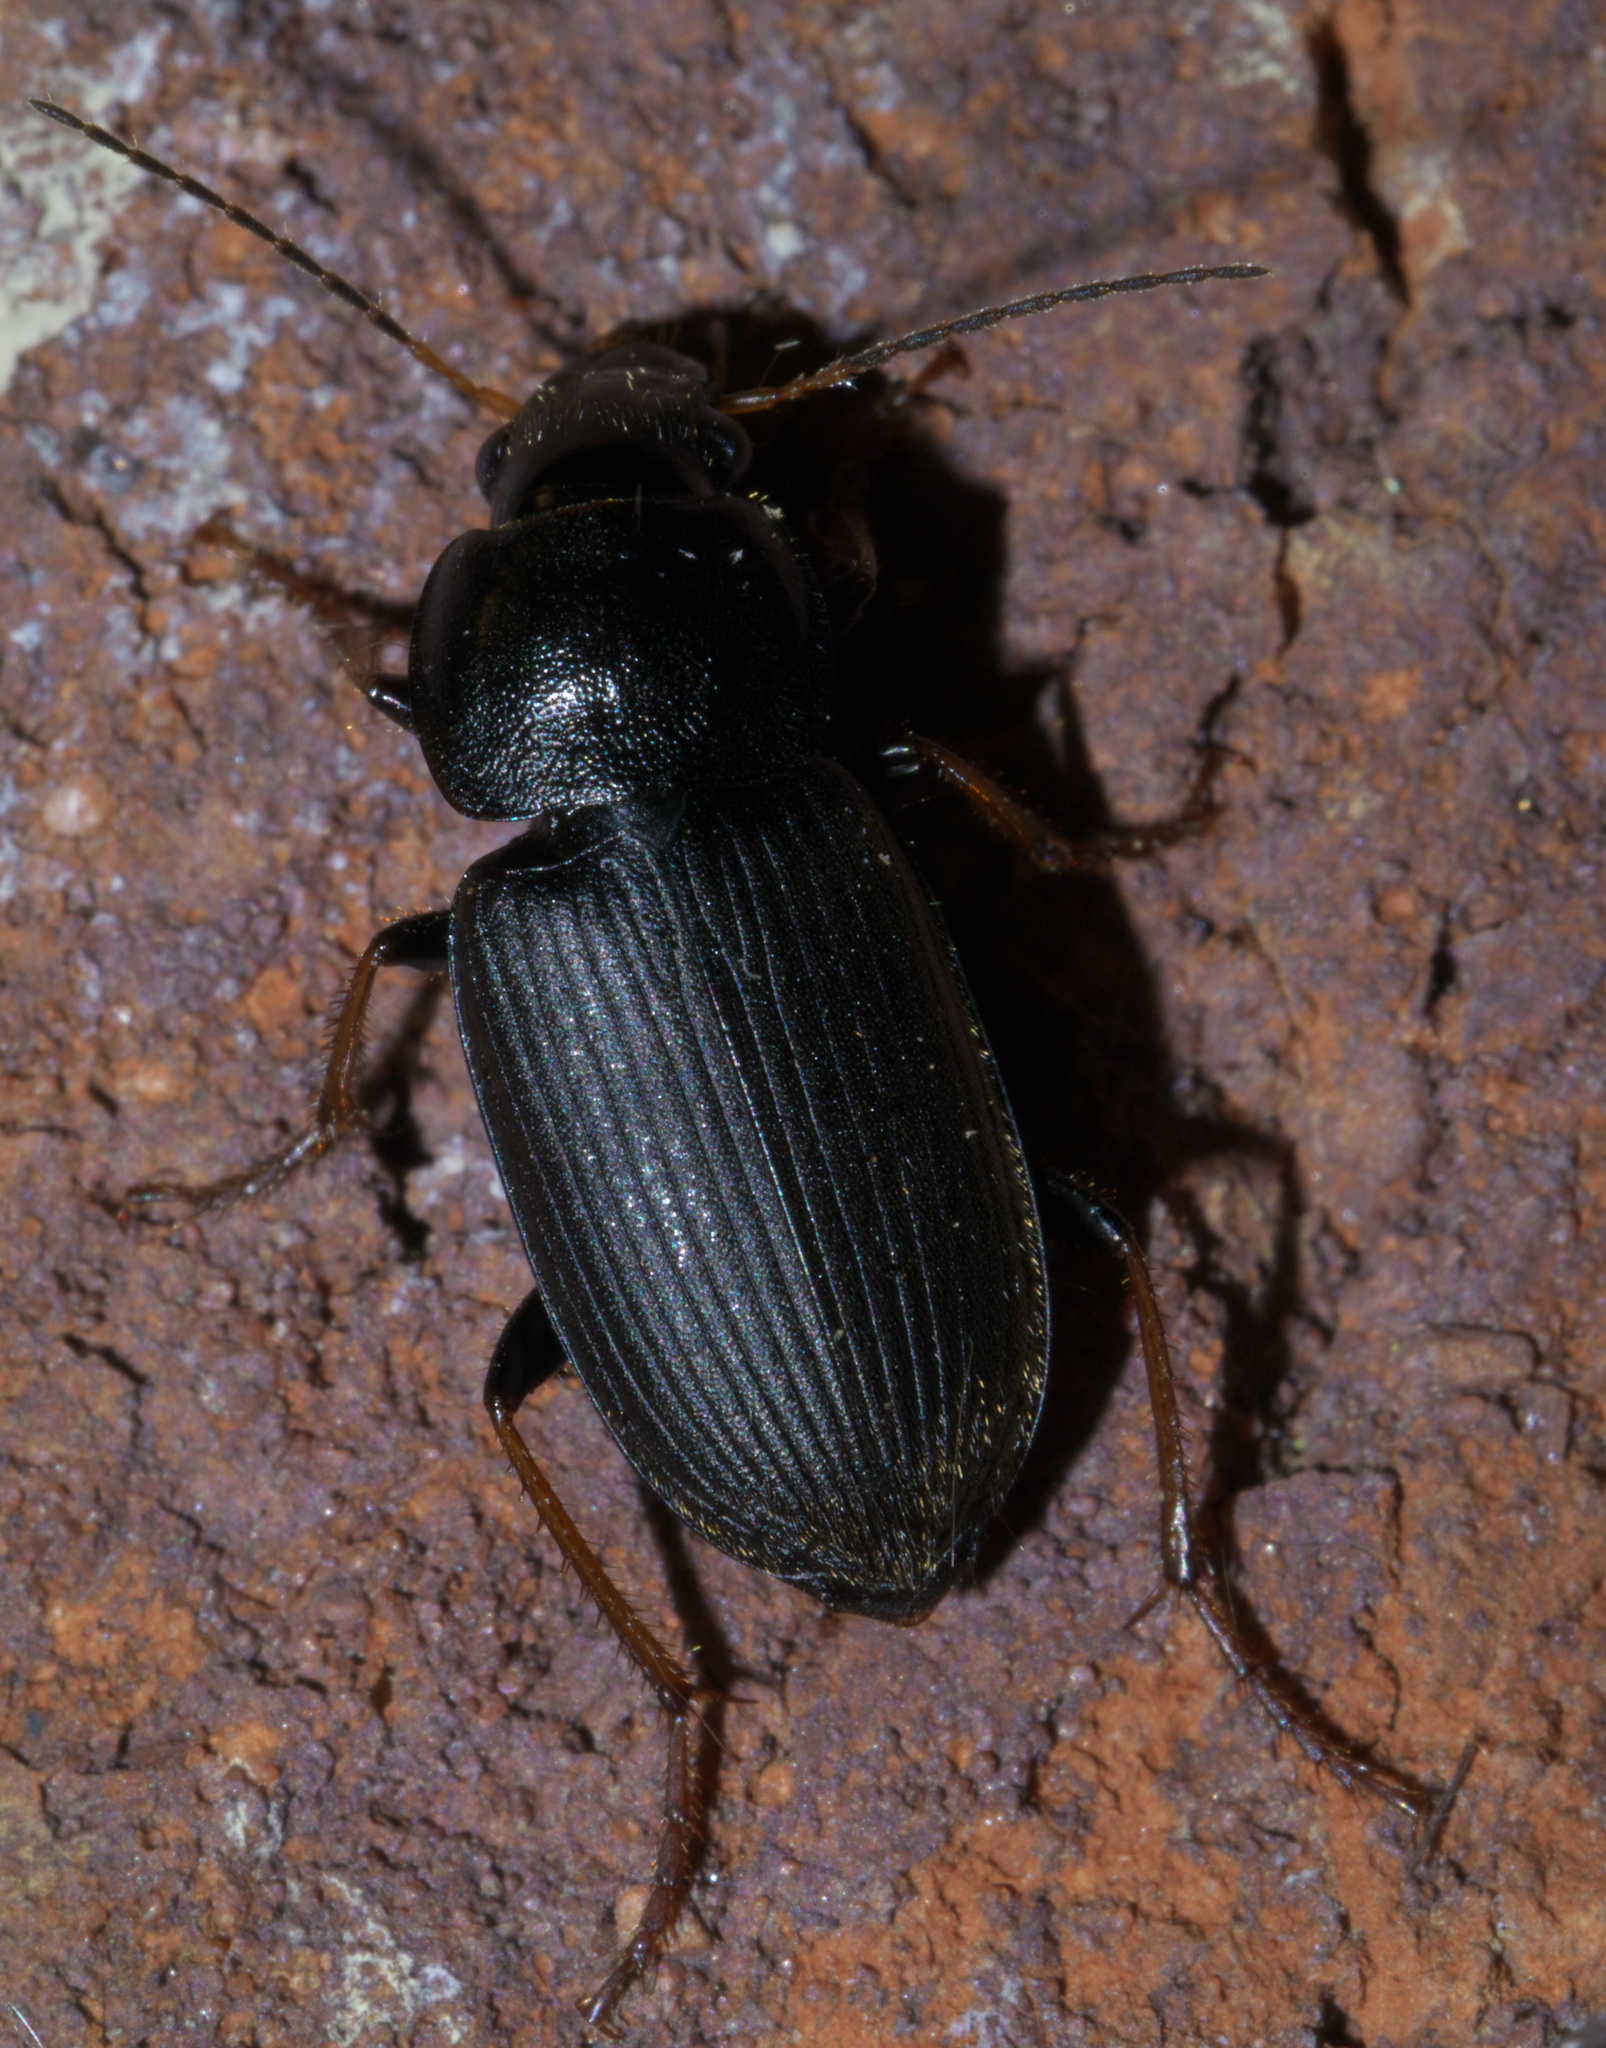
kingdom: Animalia
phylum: Arthropoda
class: Insecta
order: Coleoptera
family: Carabidae
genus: Amphasia
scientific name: Amphasia sericea
